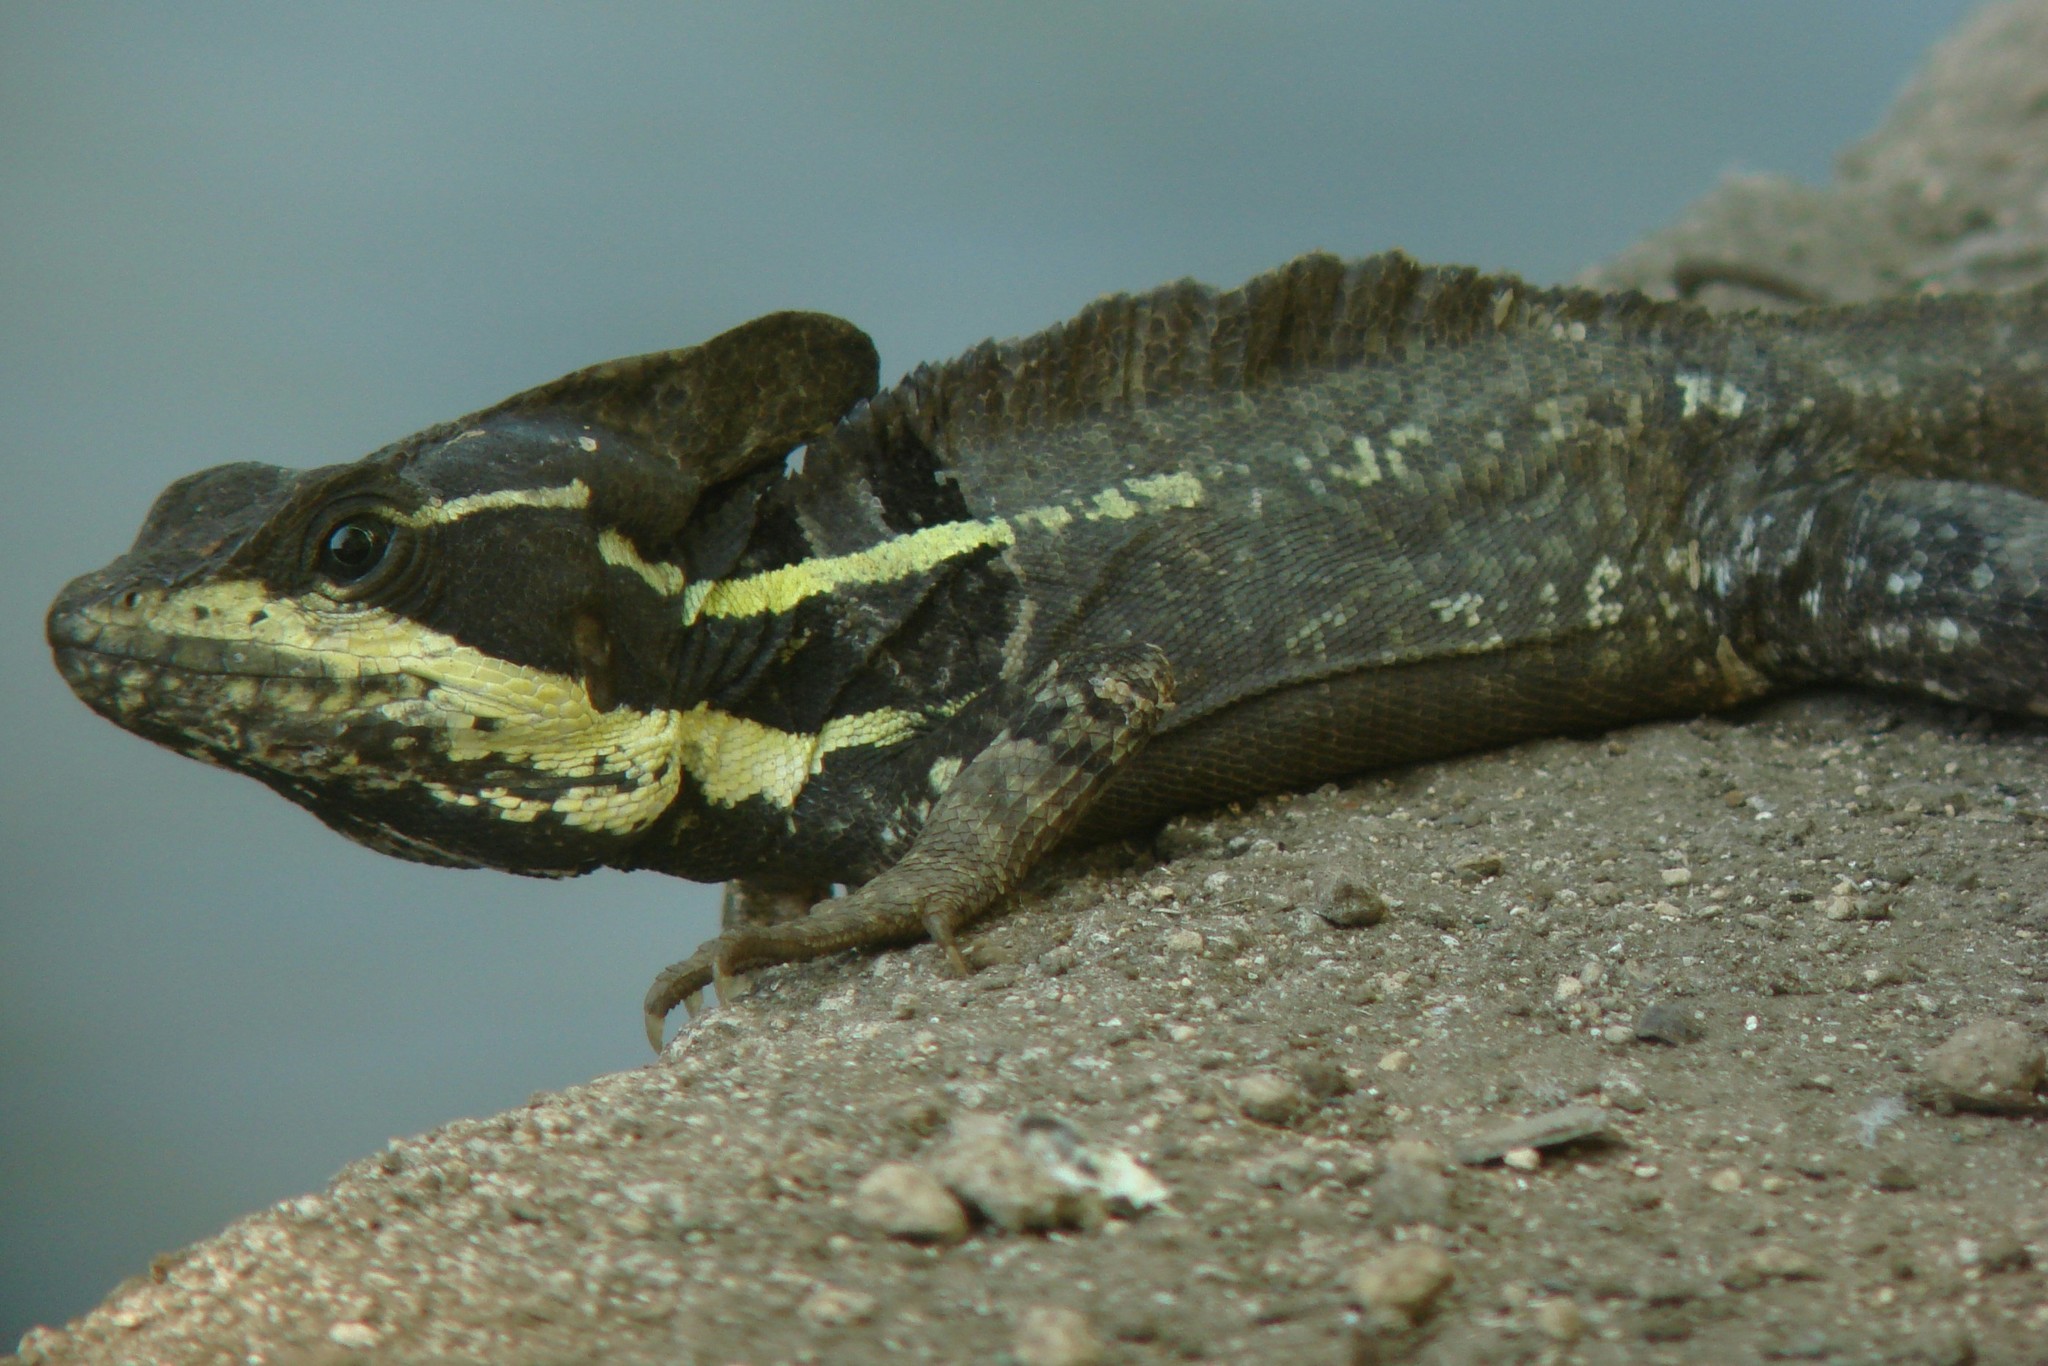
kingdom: Animalia
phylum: Chordata
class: Squamata
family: Corytophanidae
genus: Basiliscus
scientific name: Basiliscus vittatus
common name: Brown basilisk
